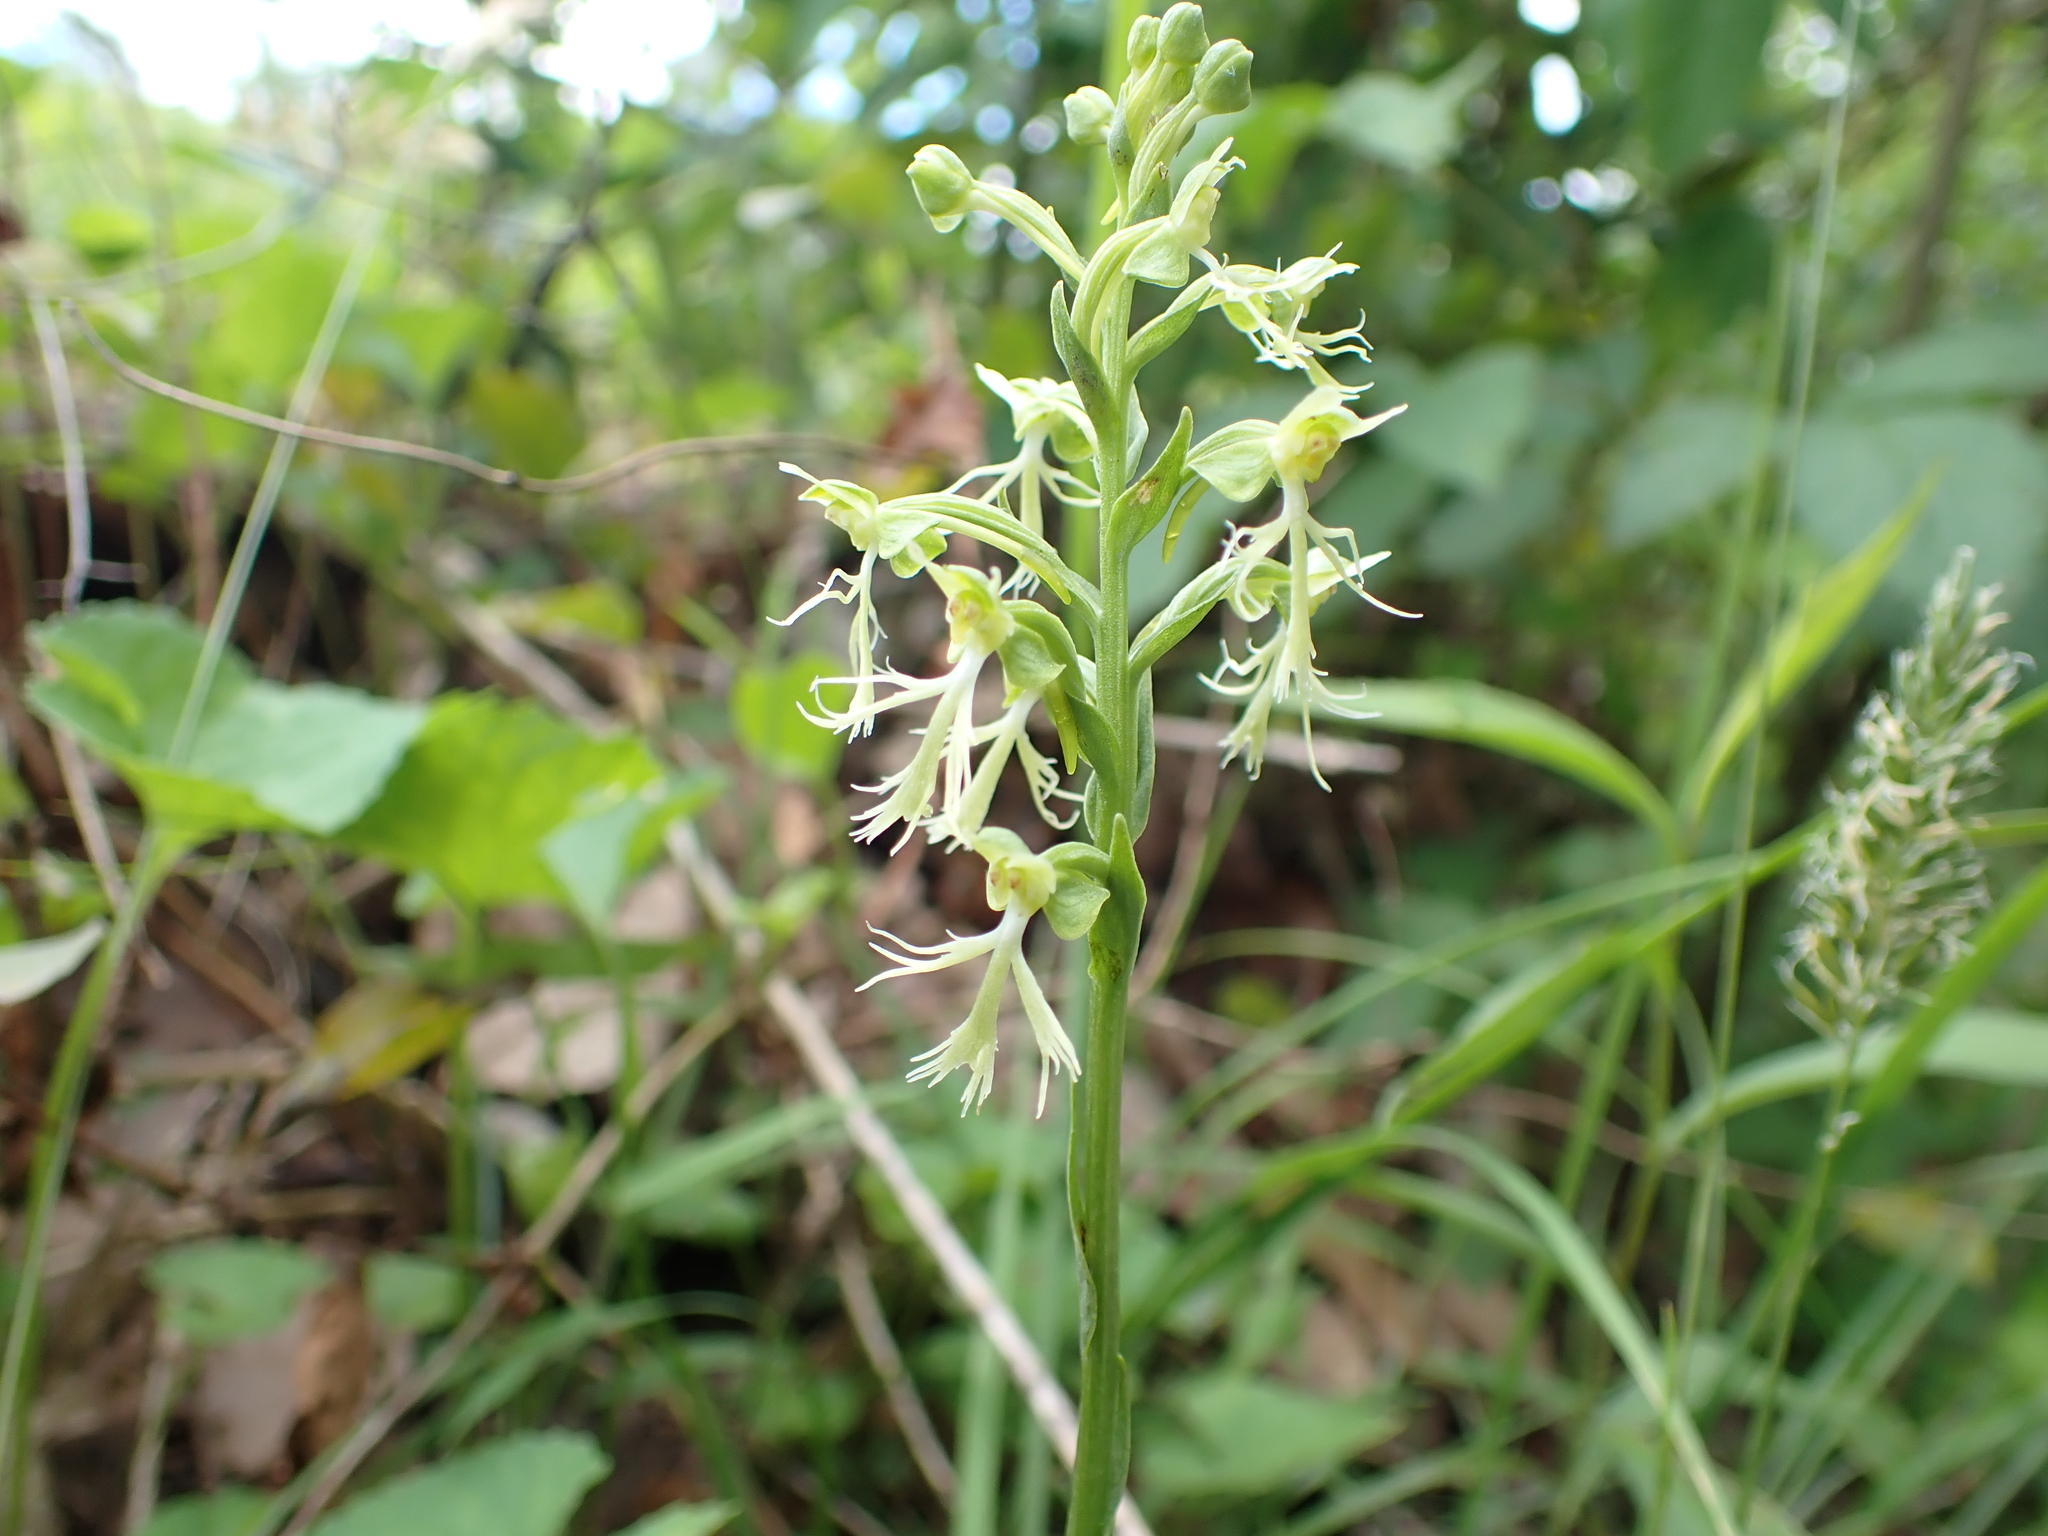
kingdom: Plantae
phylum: Tracheophyta
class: Liliopsida
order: Asparagales
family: Orchidaceae
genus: Platanthera
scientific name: Platanthera lacera
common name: Green fringed orchid
